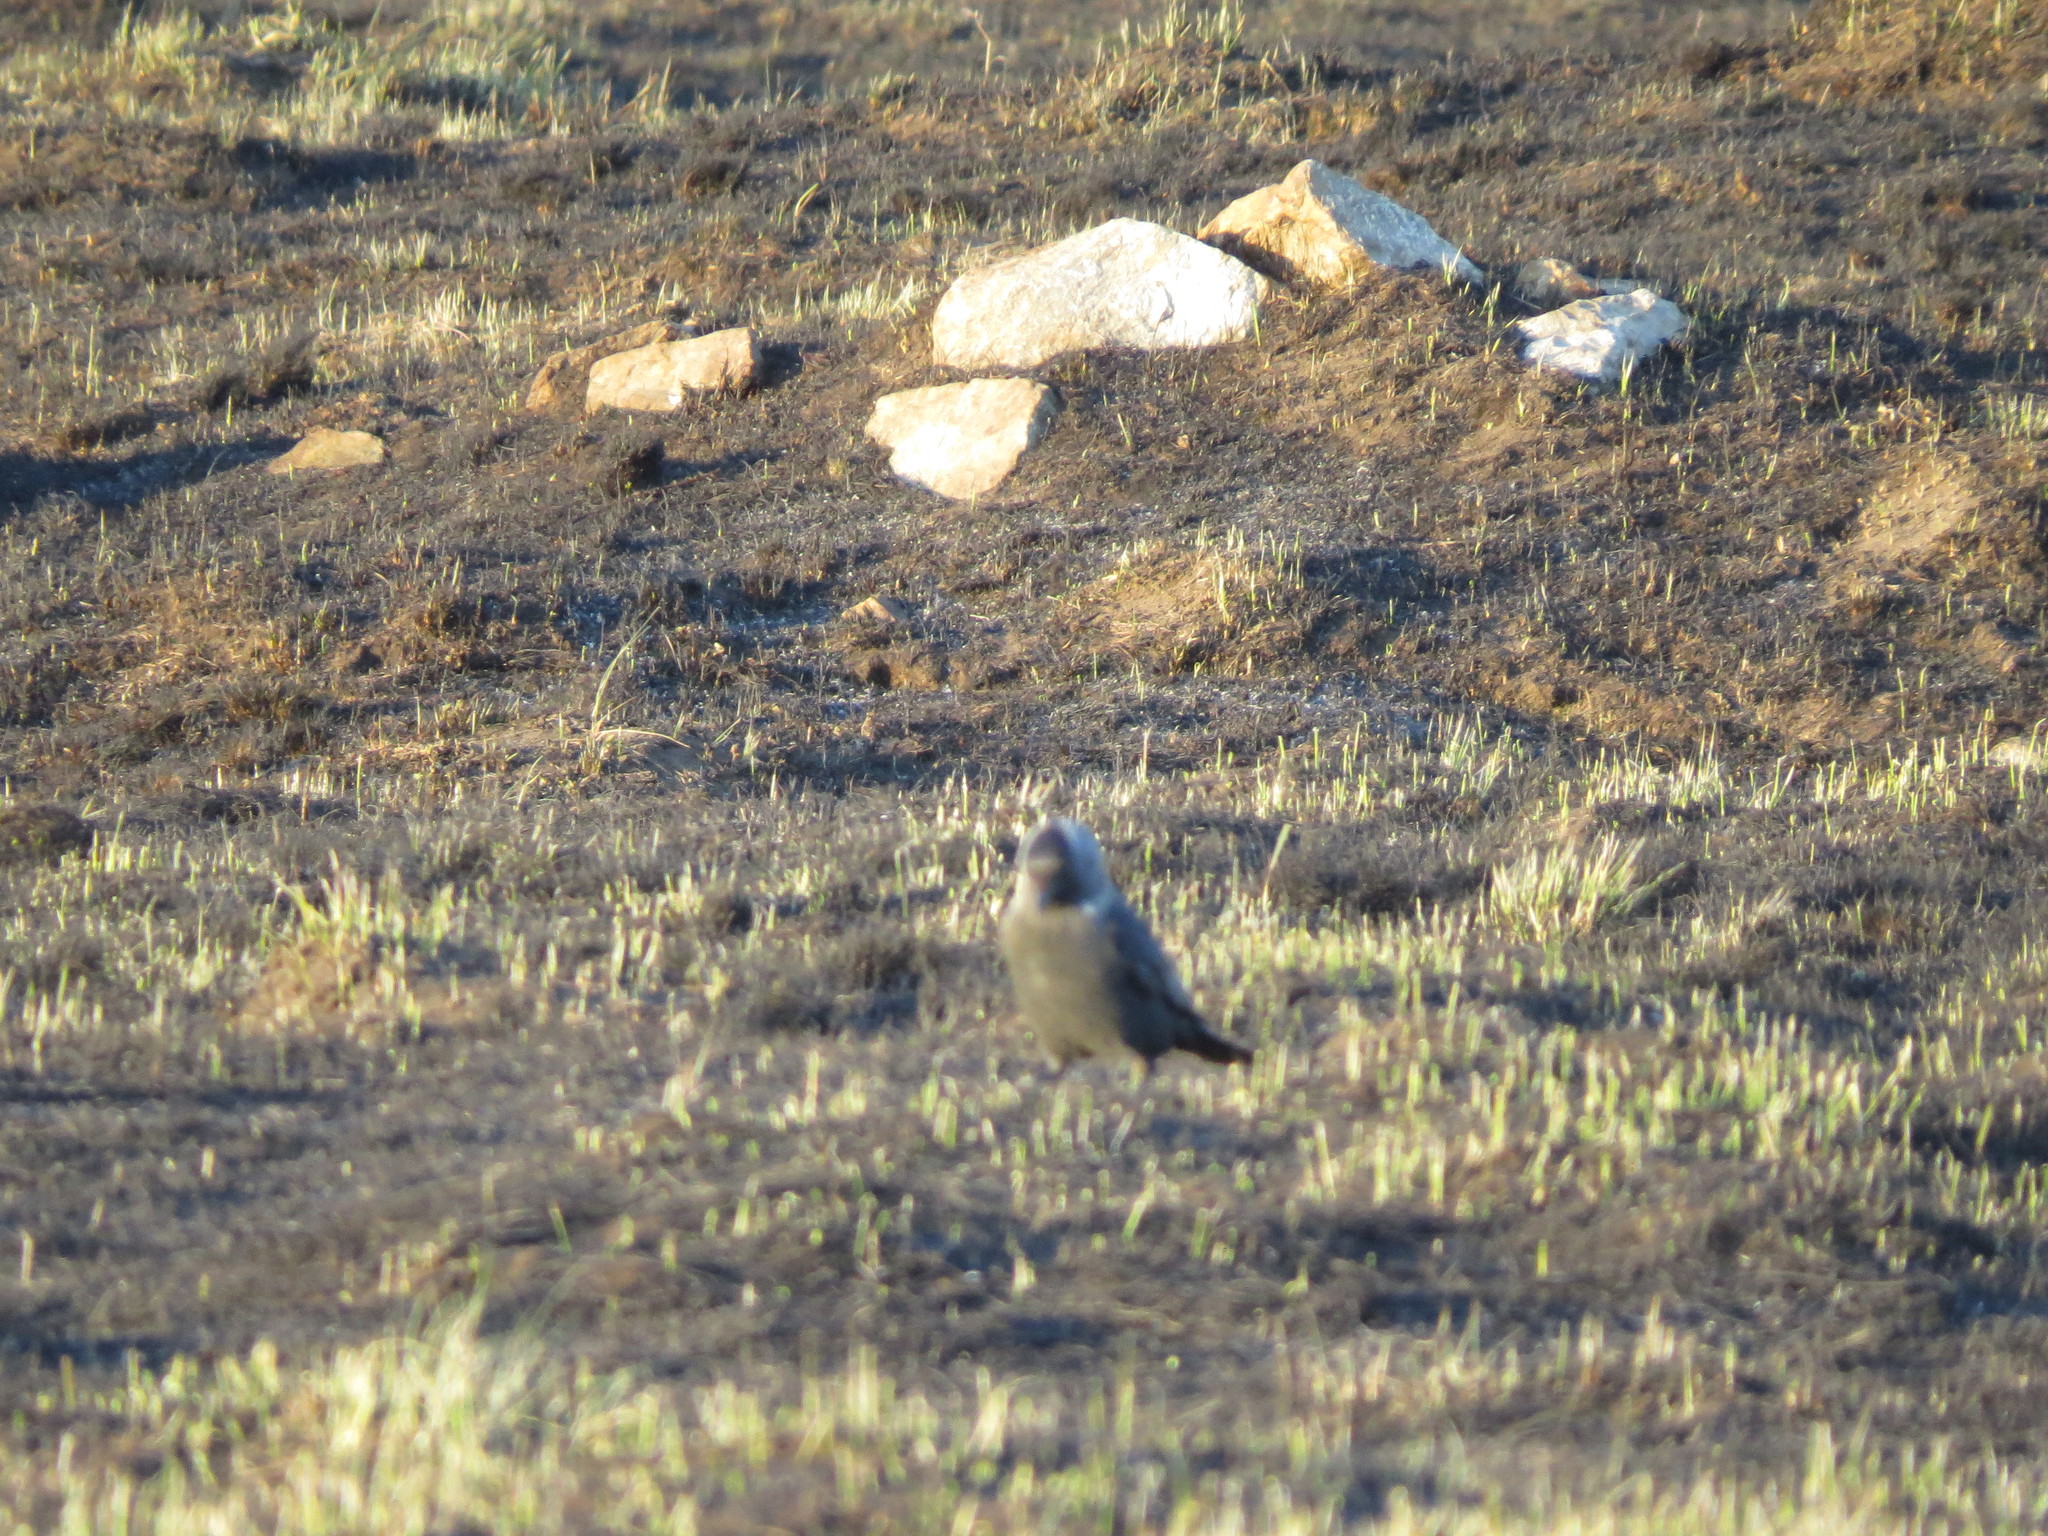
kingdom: Animalia
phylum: Chordata
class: Aves
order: Passeriformes
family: Corvidae
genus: Coloeus
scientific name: Coloeus monedula
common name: Western jackdaw
